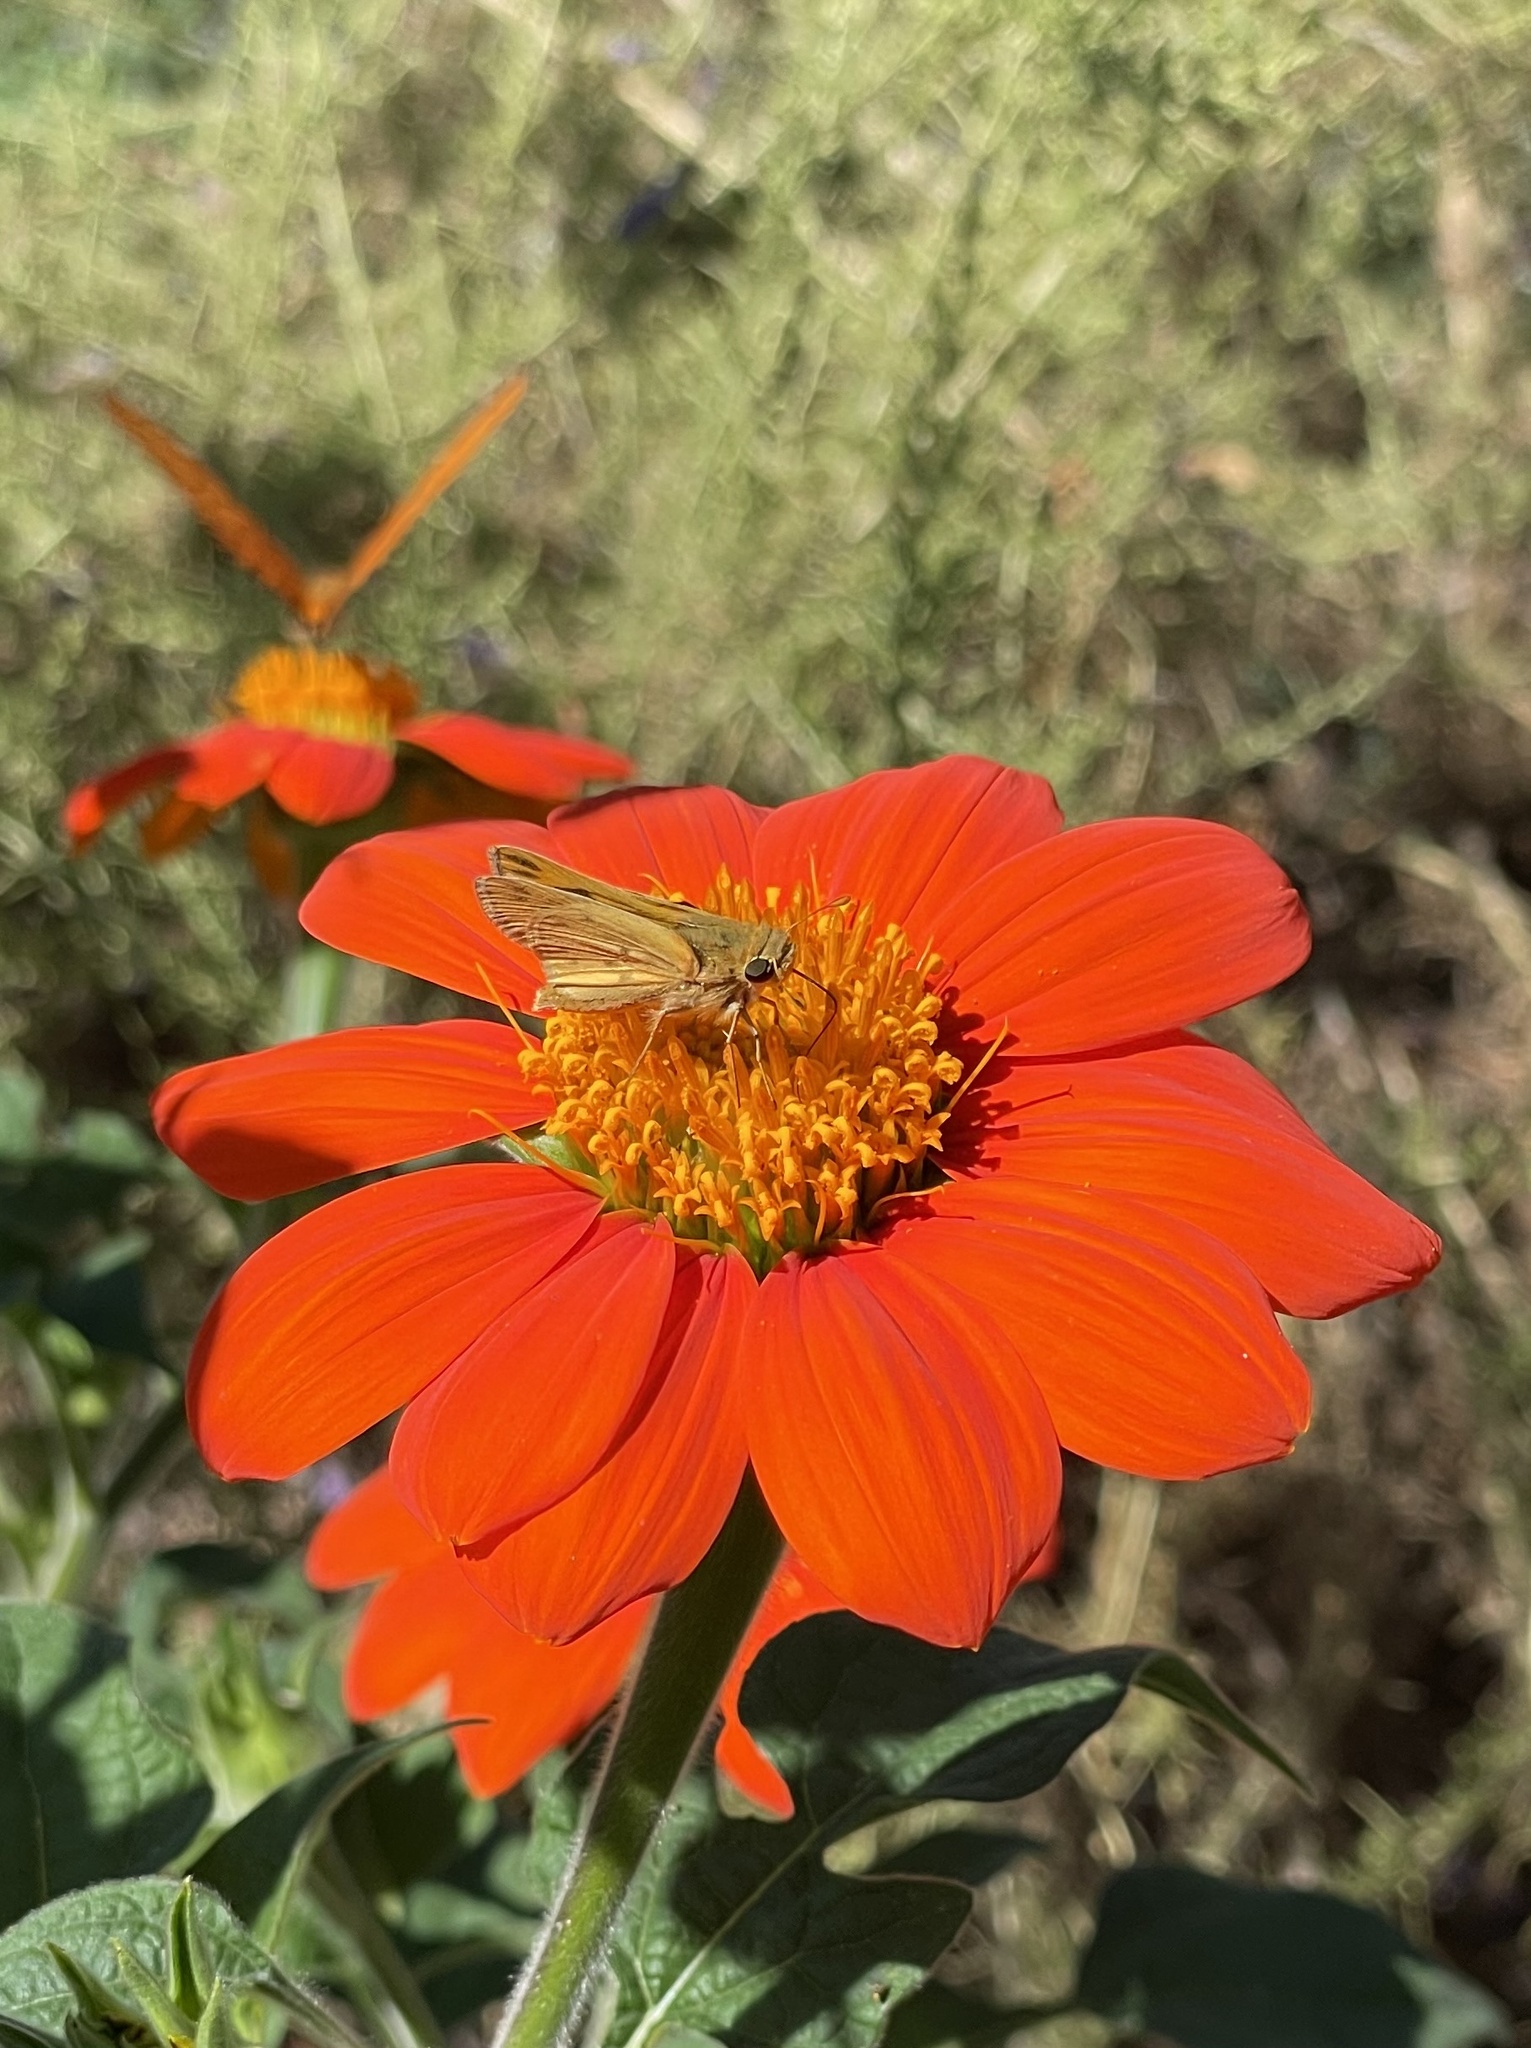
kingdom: Animalia
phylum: Arthropoda
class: Insecta
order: Lepidoptera
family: Hesperiidae
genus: Hylephila
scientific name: Hylephila phyleus
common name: Fiery skipper
